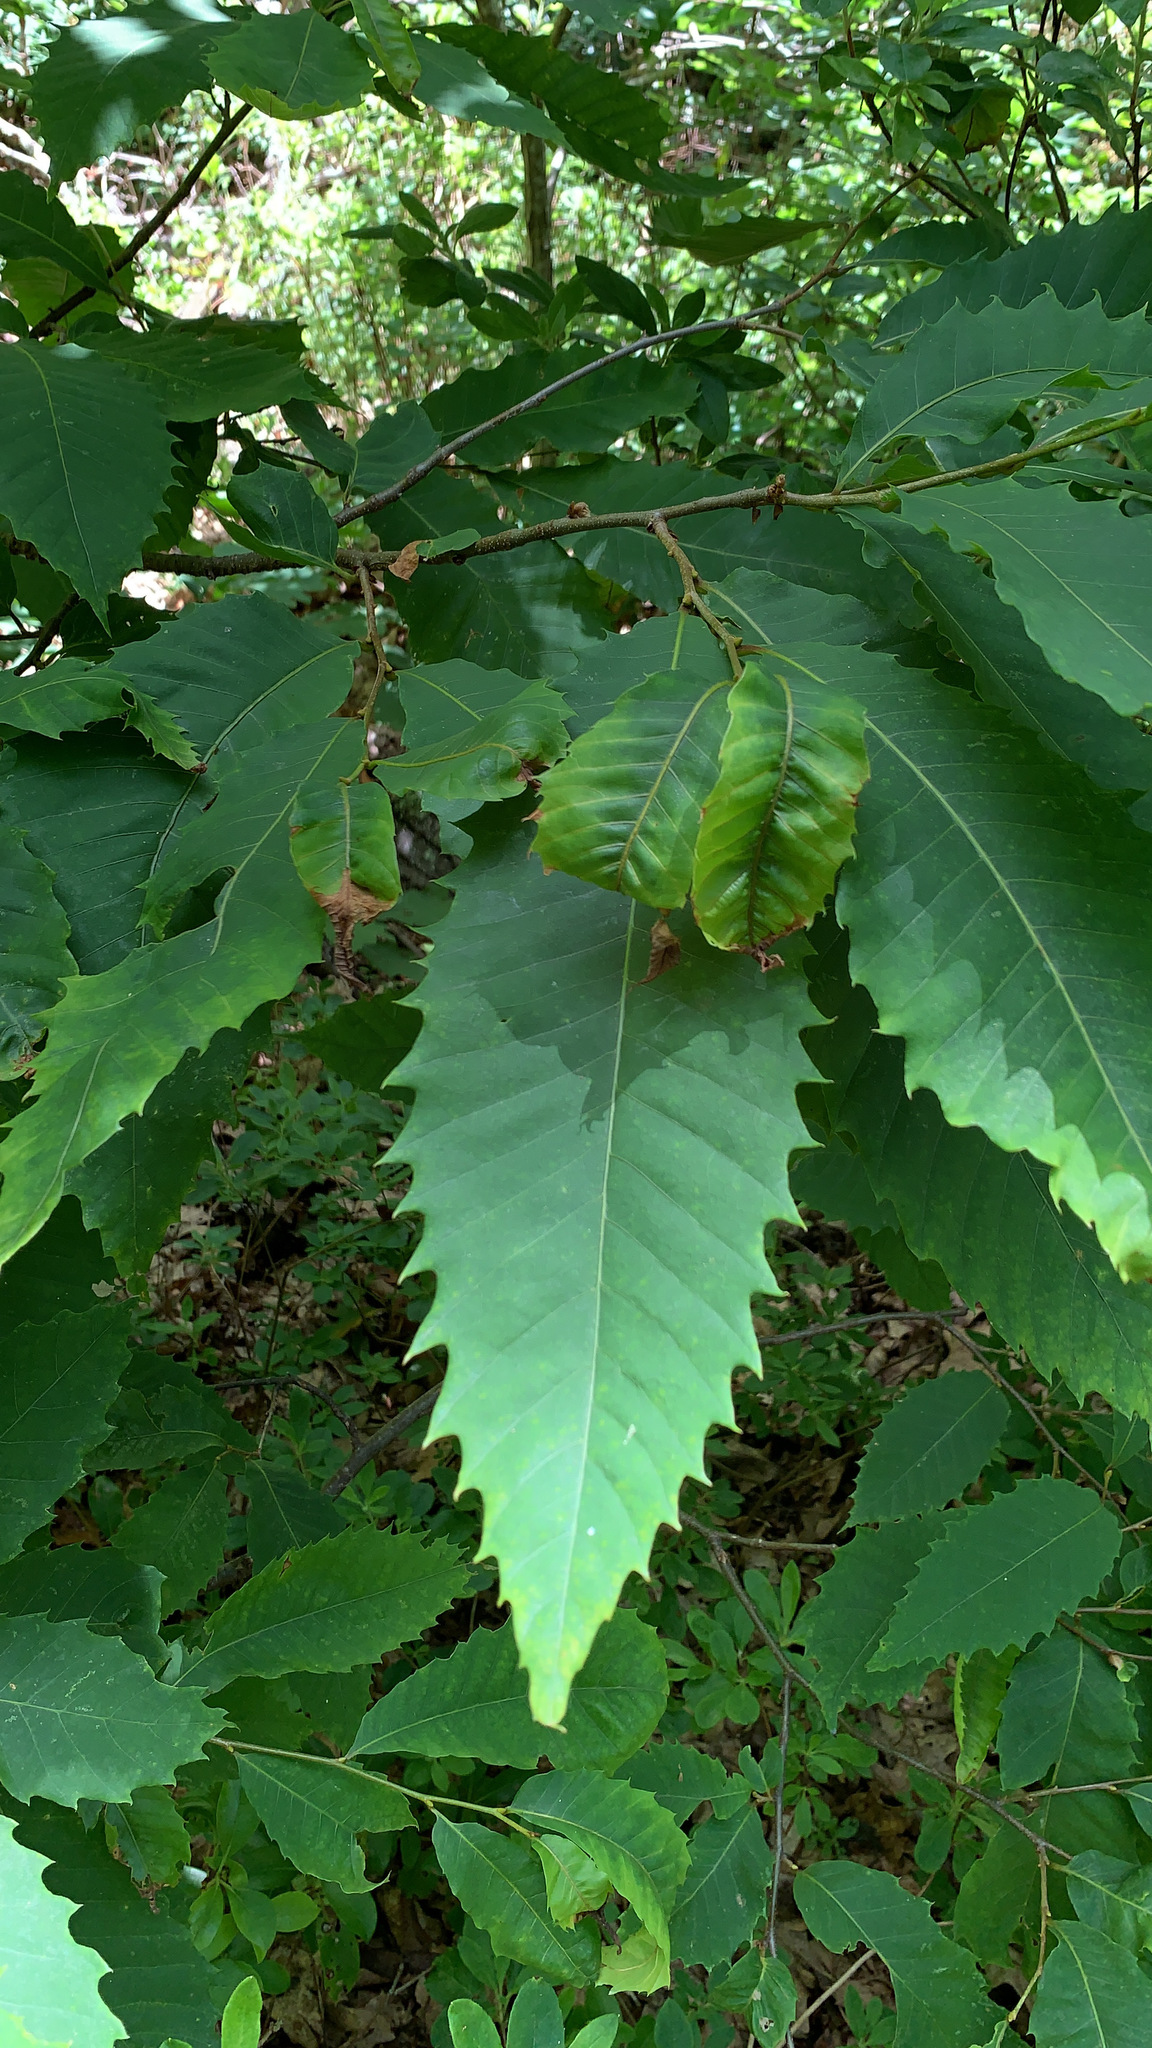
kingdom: Plantae
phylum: Tracheophyta
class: Magnoliopsida
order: Fagales
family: Fagaceae
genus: Castanea
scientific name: Castanea dentata
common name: American chestnut
